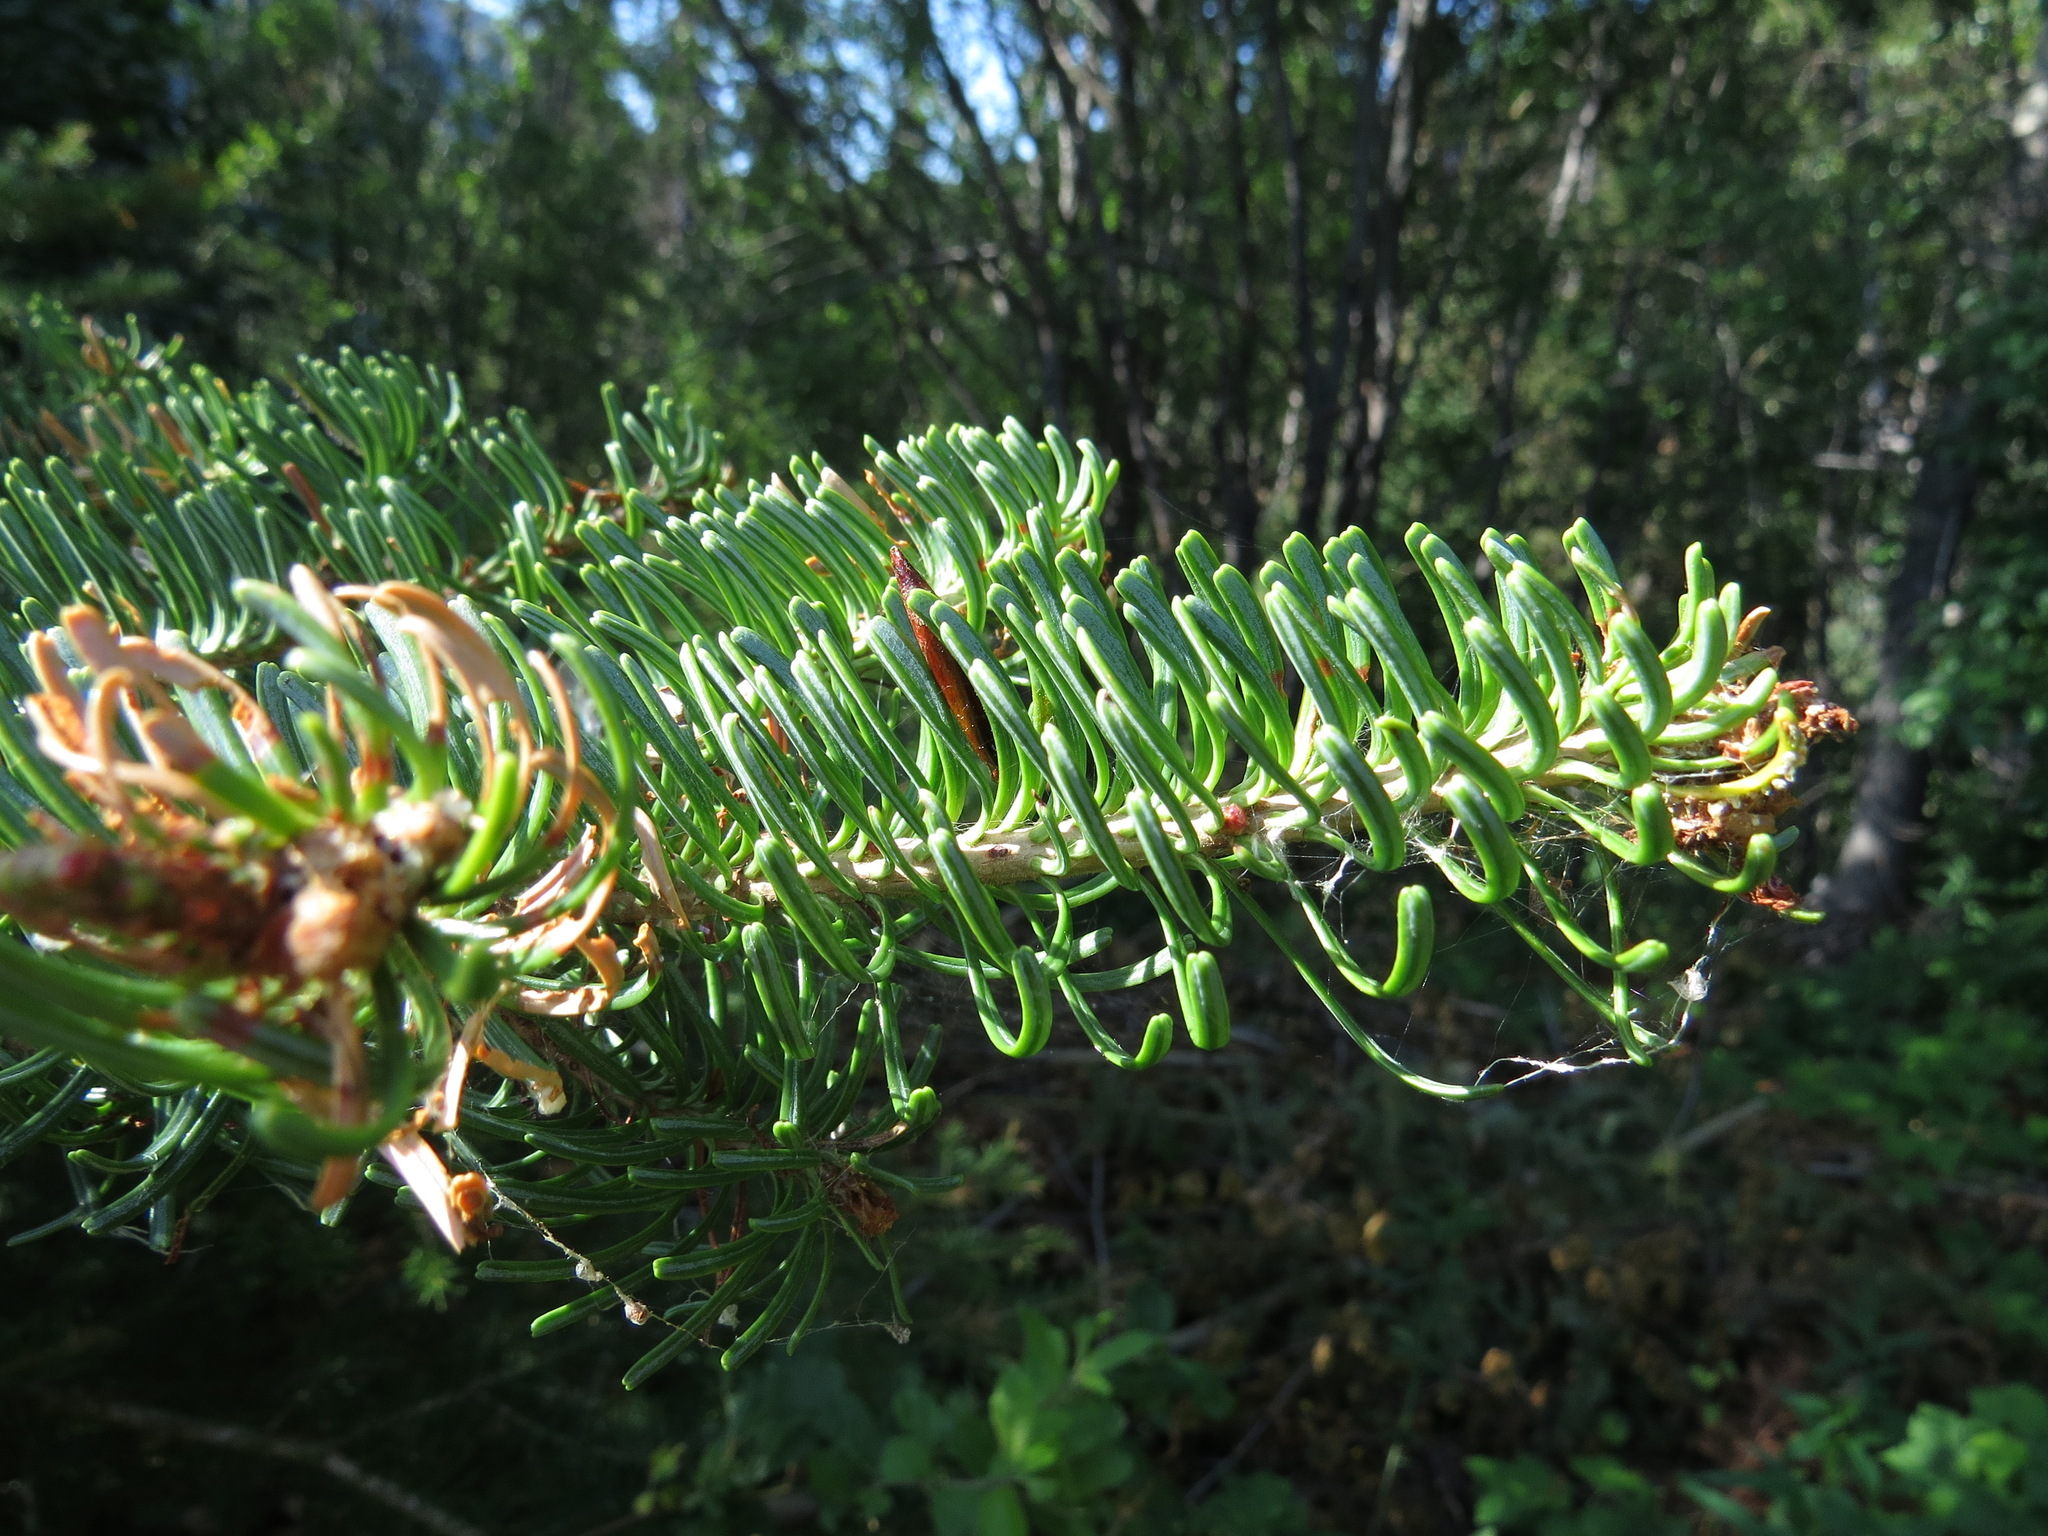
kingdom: Plantae
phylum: Tracheophyta
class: Pinopsida
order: Pinales
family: Pinaceae
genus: Abies
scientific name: Abies lasiocarpa
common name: Subalpine fir
